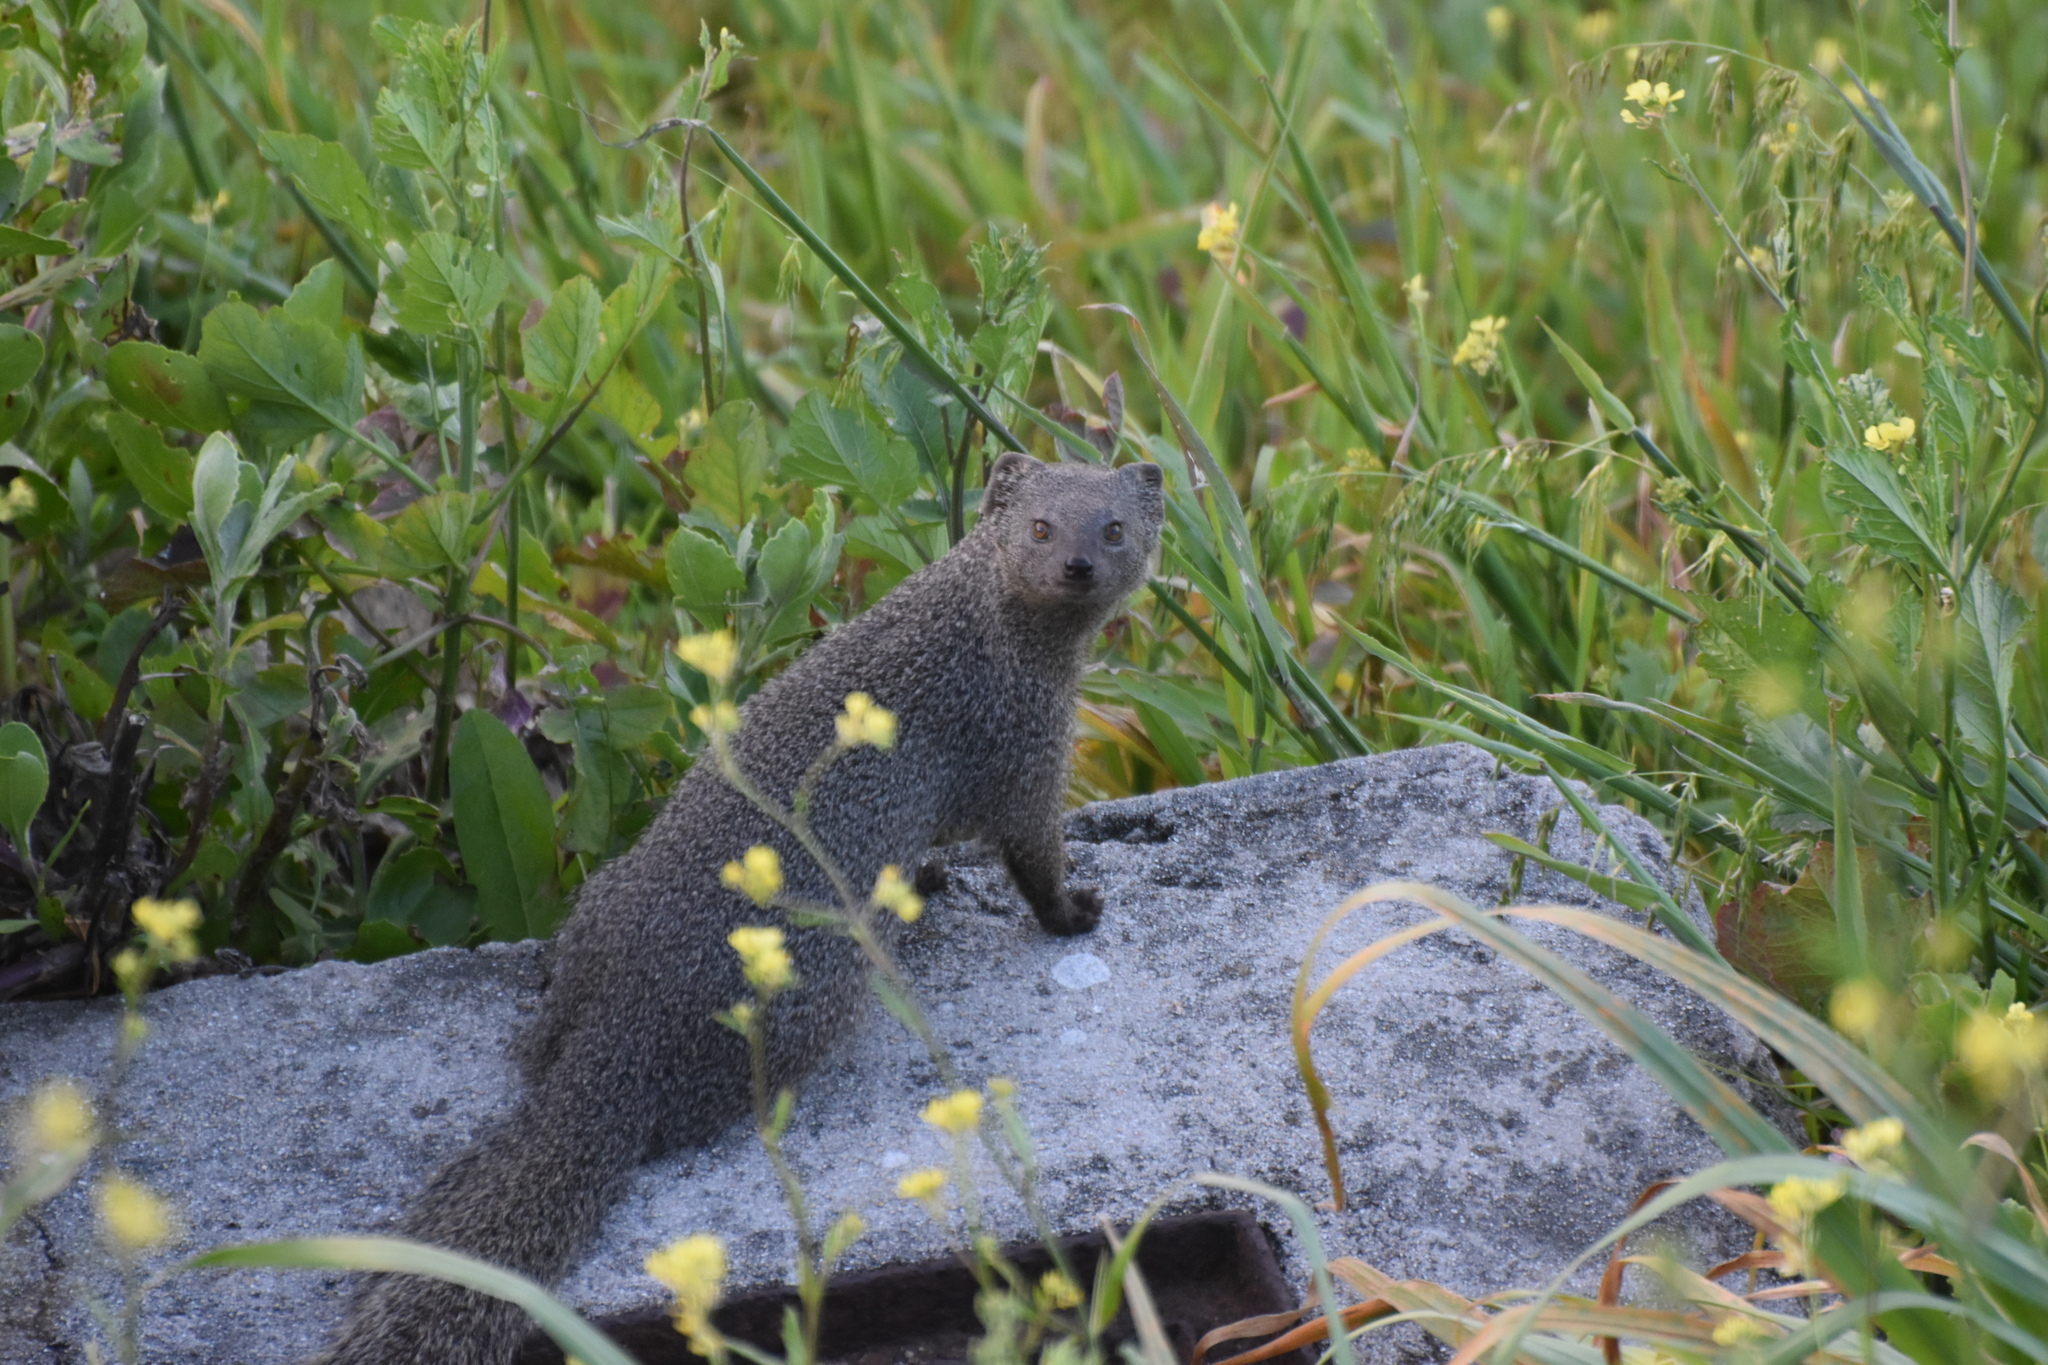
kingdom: Animalia
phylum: Chordata
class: Mammalia
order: Carnivora
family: Herpestidae
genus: Galerella
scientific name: Galerella pulverulenta
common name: Cape gray mongoose
